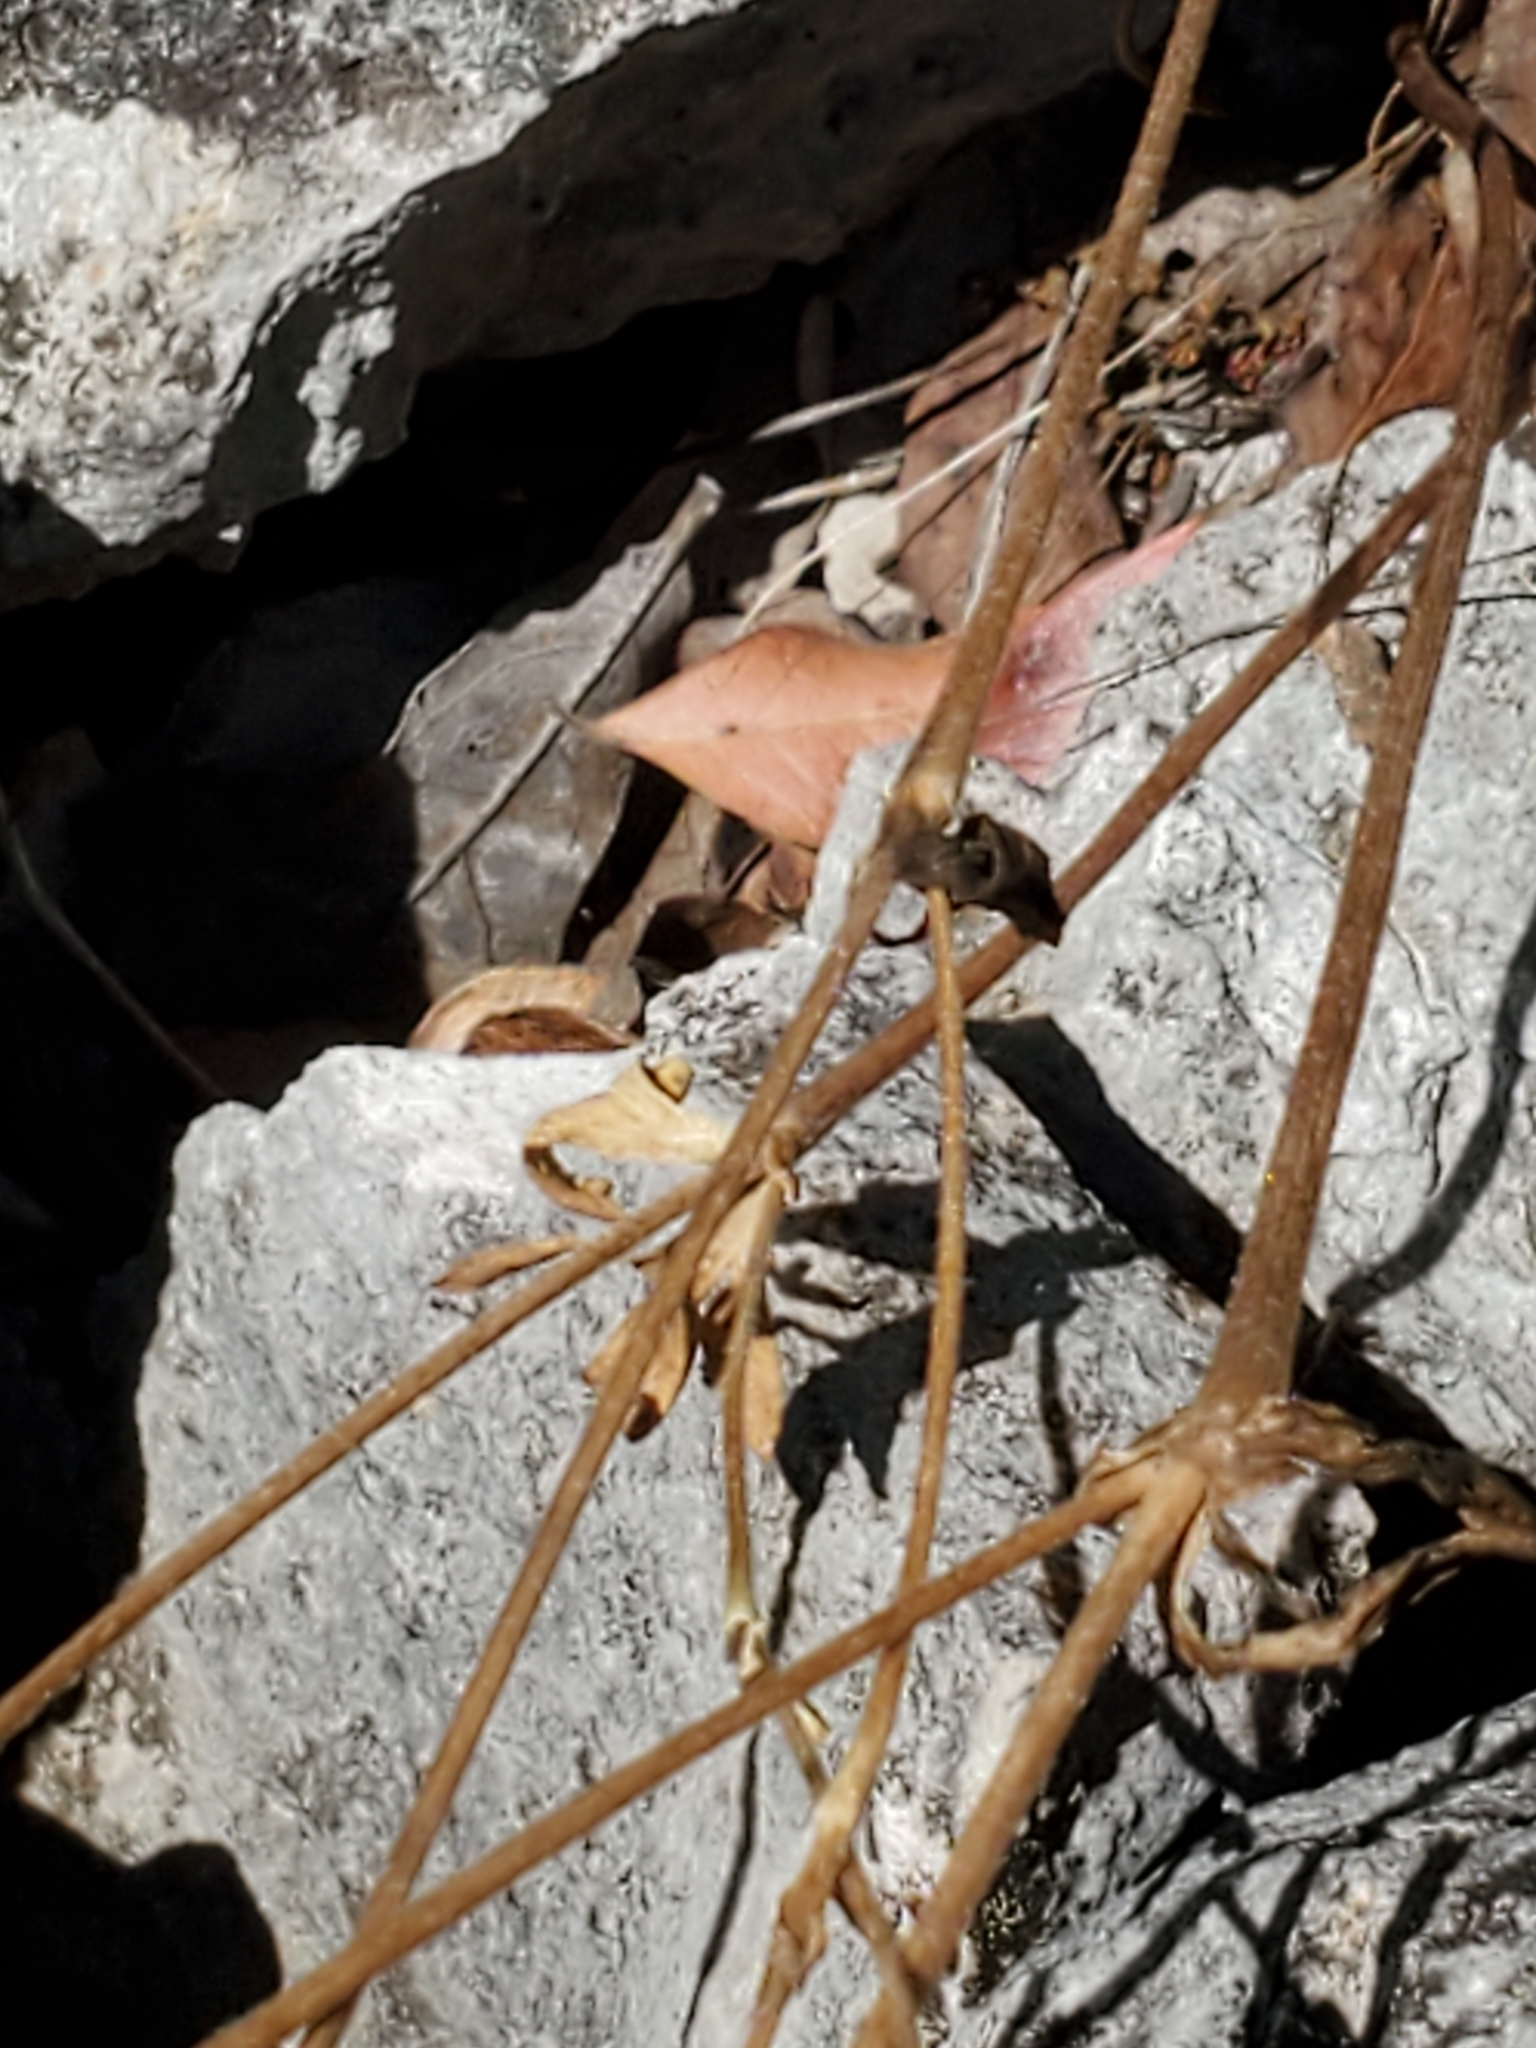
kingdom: Plantae
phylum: Tracheophyta
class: Magnoliopsida
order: Ranunculales
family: Ranunculaceae
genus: Anemone
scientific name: Anemone edwardsiana
